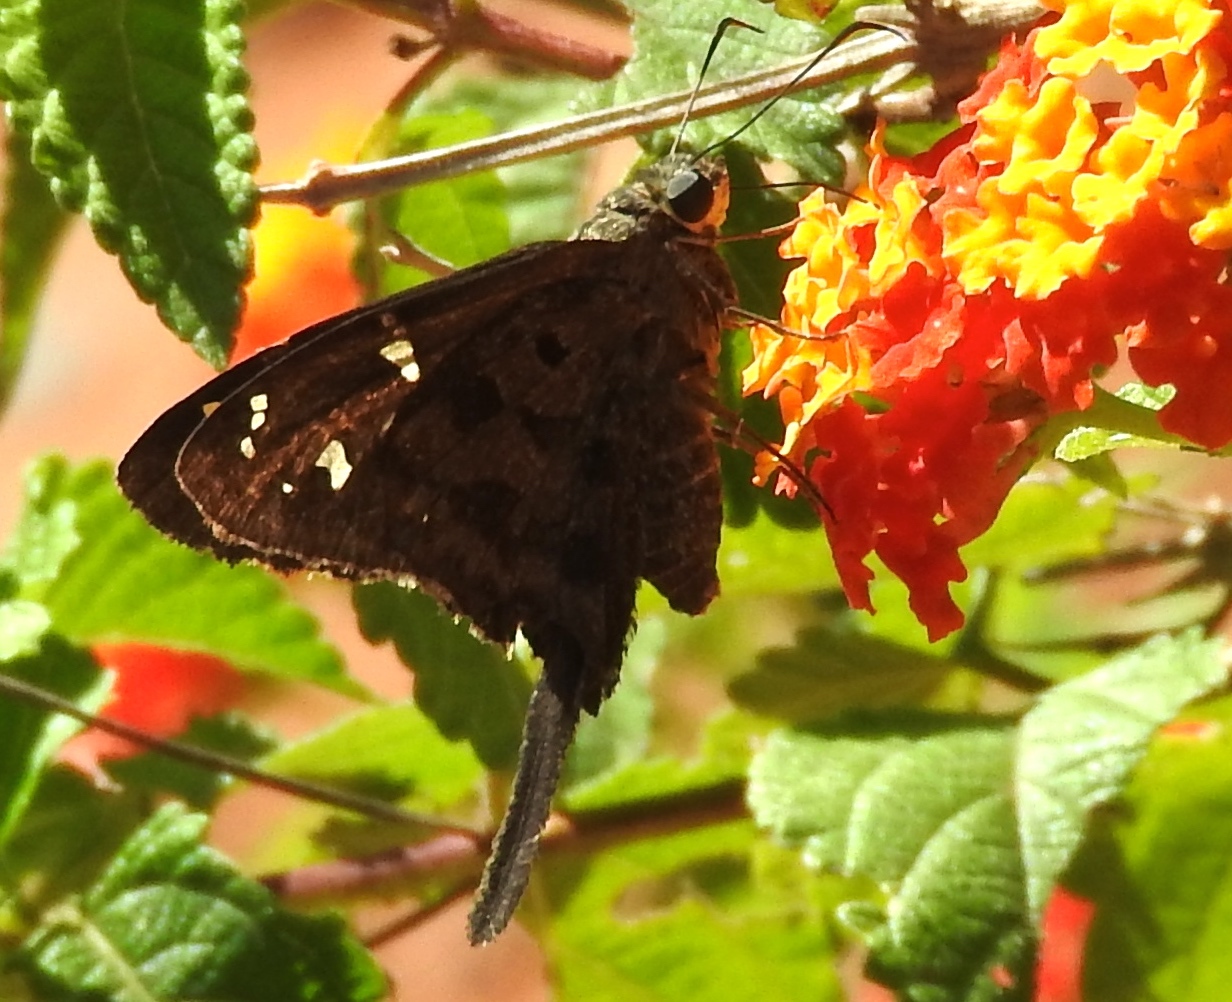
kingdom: Animalia
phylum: Arthropoda
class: Insecta
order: Lepidoptera
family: Hesperiidae
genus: Thorybes
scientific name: Thorybes
